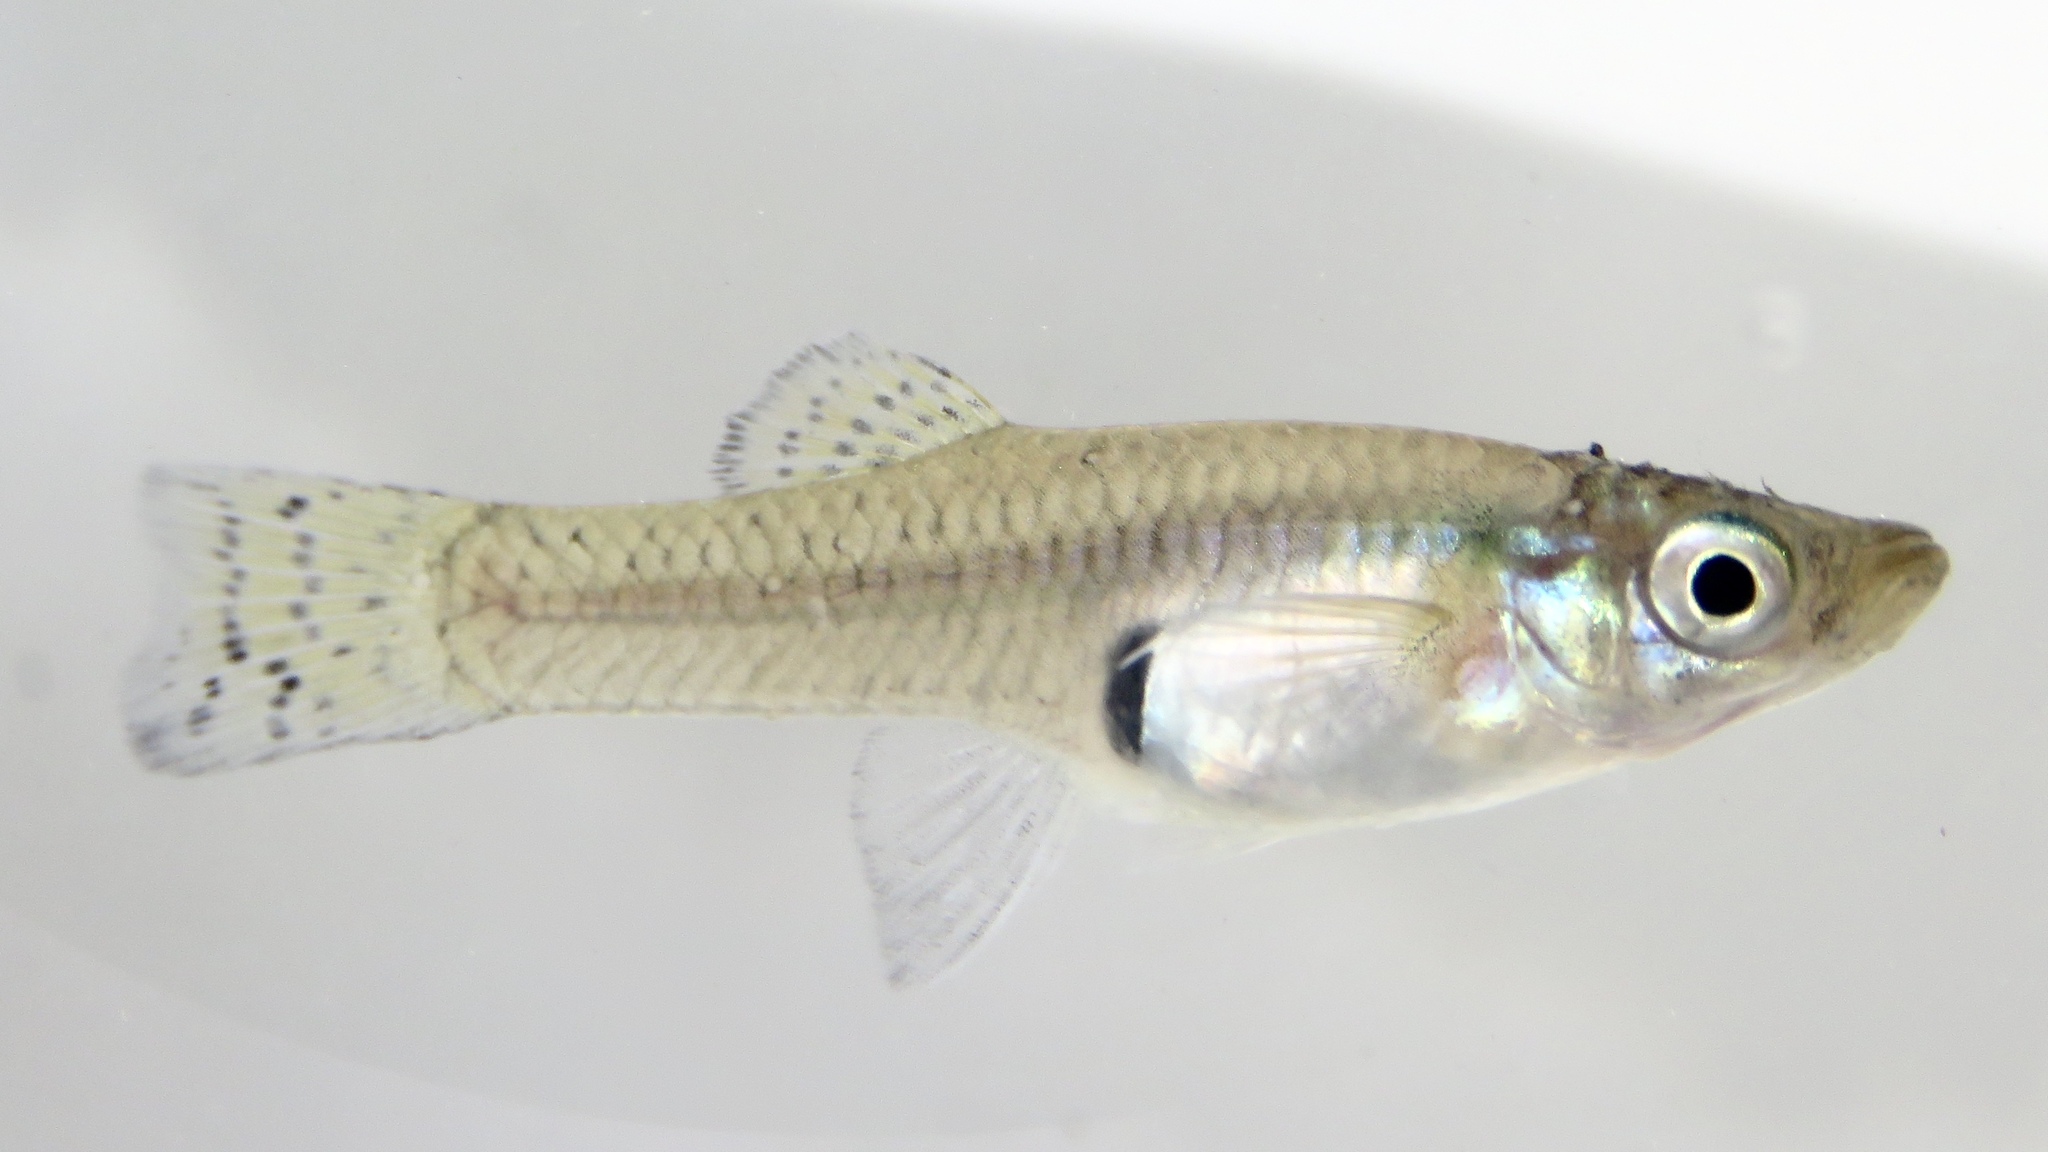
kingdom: Animalia
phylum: Chordata
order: Cyprinodontiformes
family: Poeciliidae
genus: Gambusia
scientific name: Gambusia holbrooki
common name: Eastern mosquitofish
